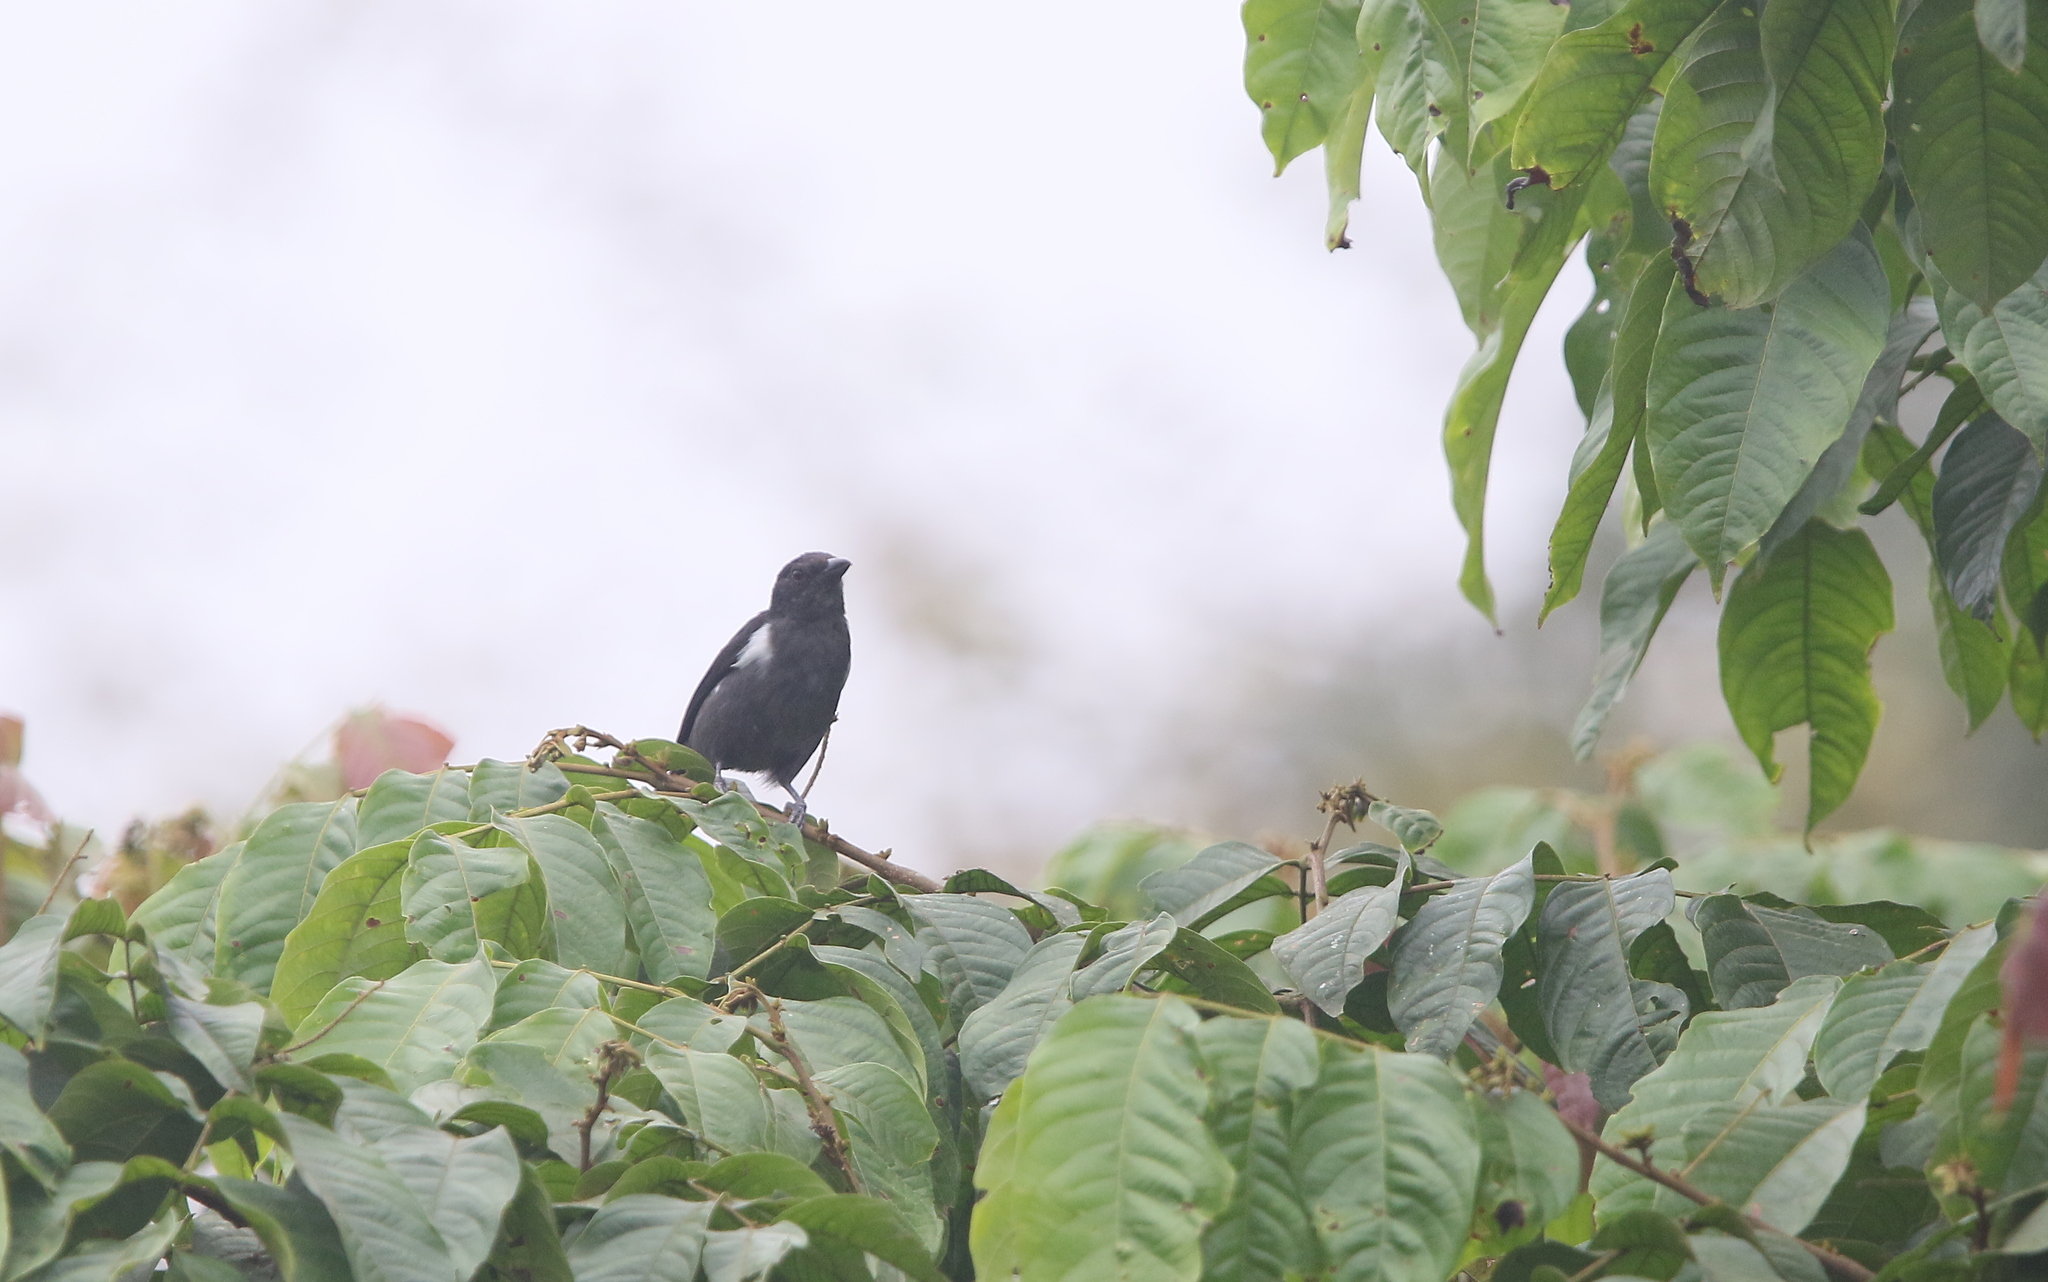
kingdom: Animalia
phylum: Chordata
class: Aves
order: Passeriformes
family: Thraupidae
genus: Heterospingus
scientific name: Heterospingus xanthopygius
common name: Scarlet-browed tanager
